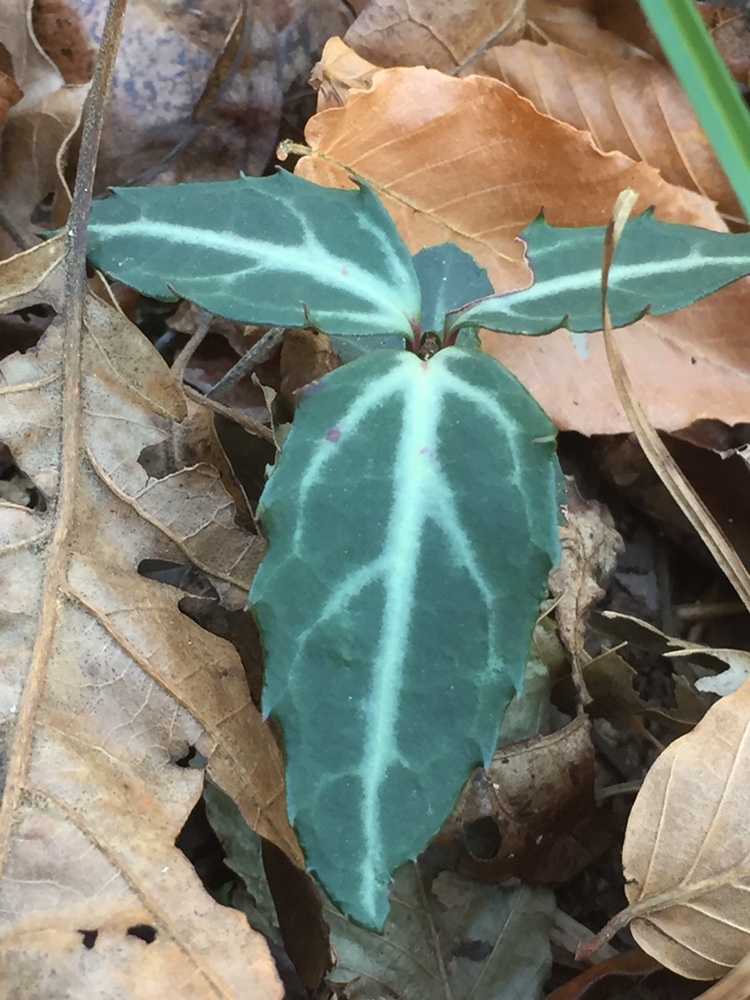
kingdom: Plantae
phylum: Tracheophyta
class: Magnoliopsida
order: Ericales
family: Ericaceae
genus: Chimaphila
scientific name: Chimaphila maculata
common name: Spotted pipsissewa
